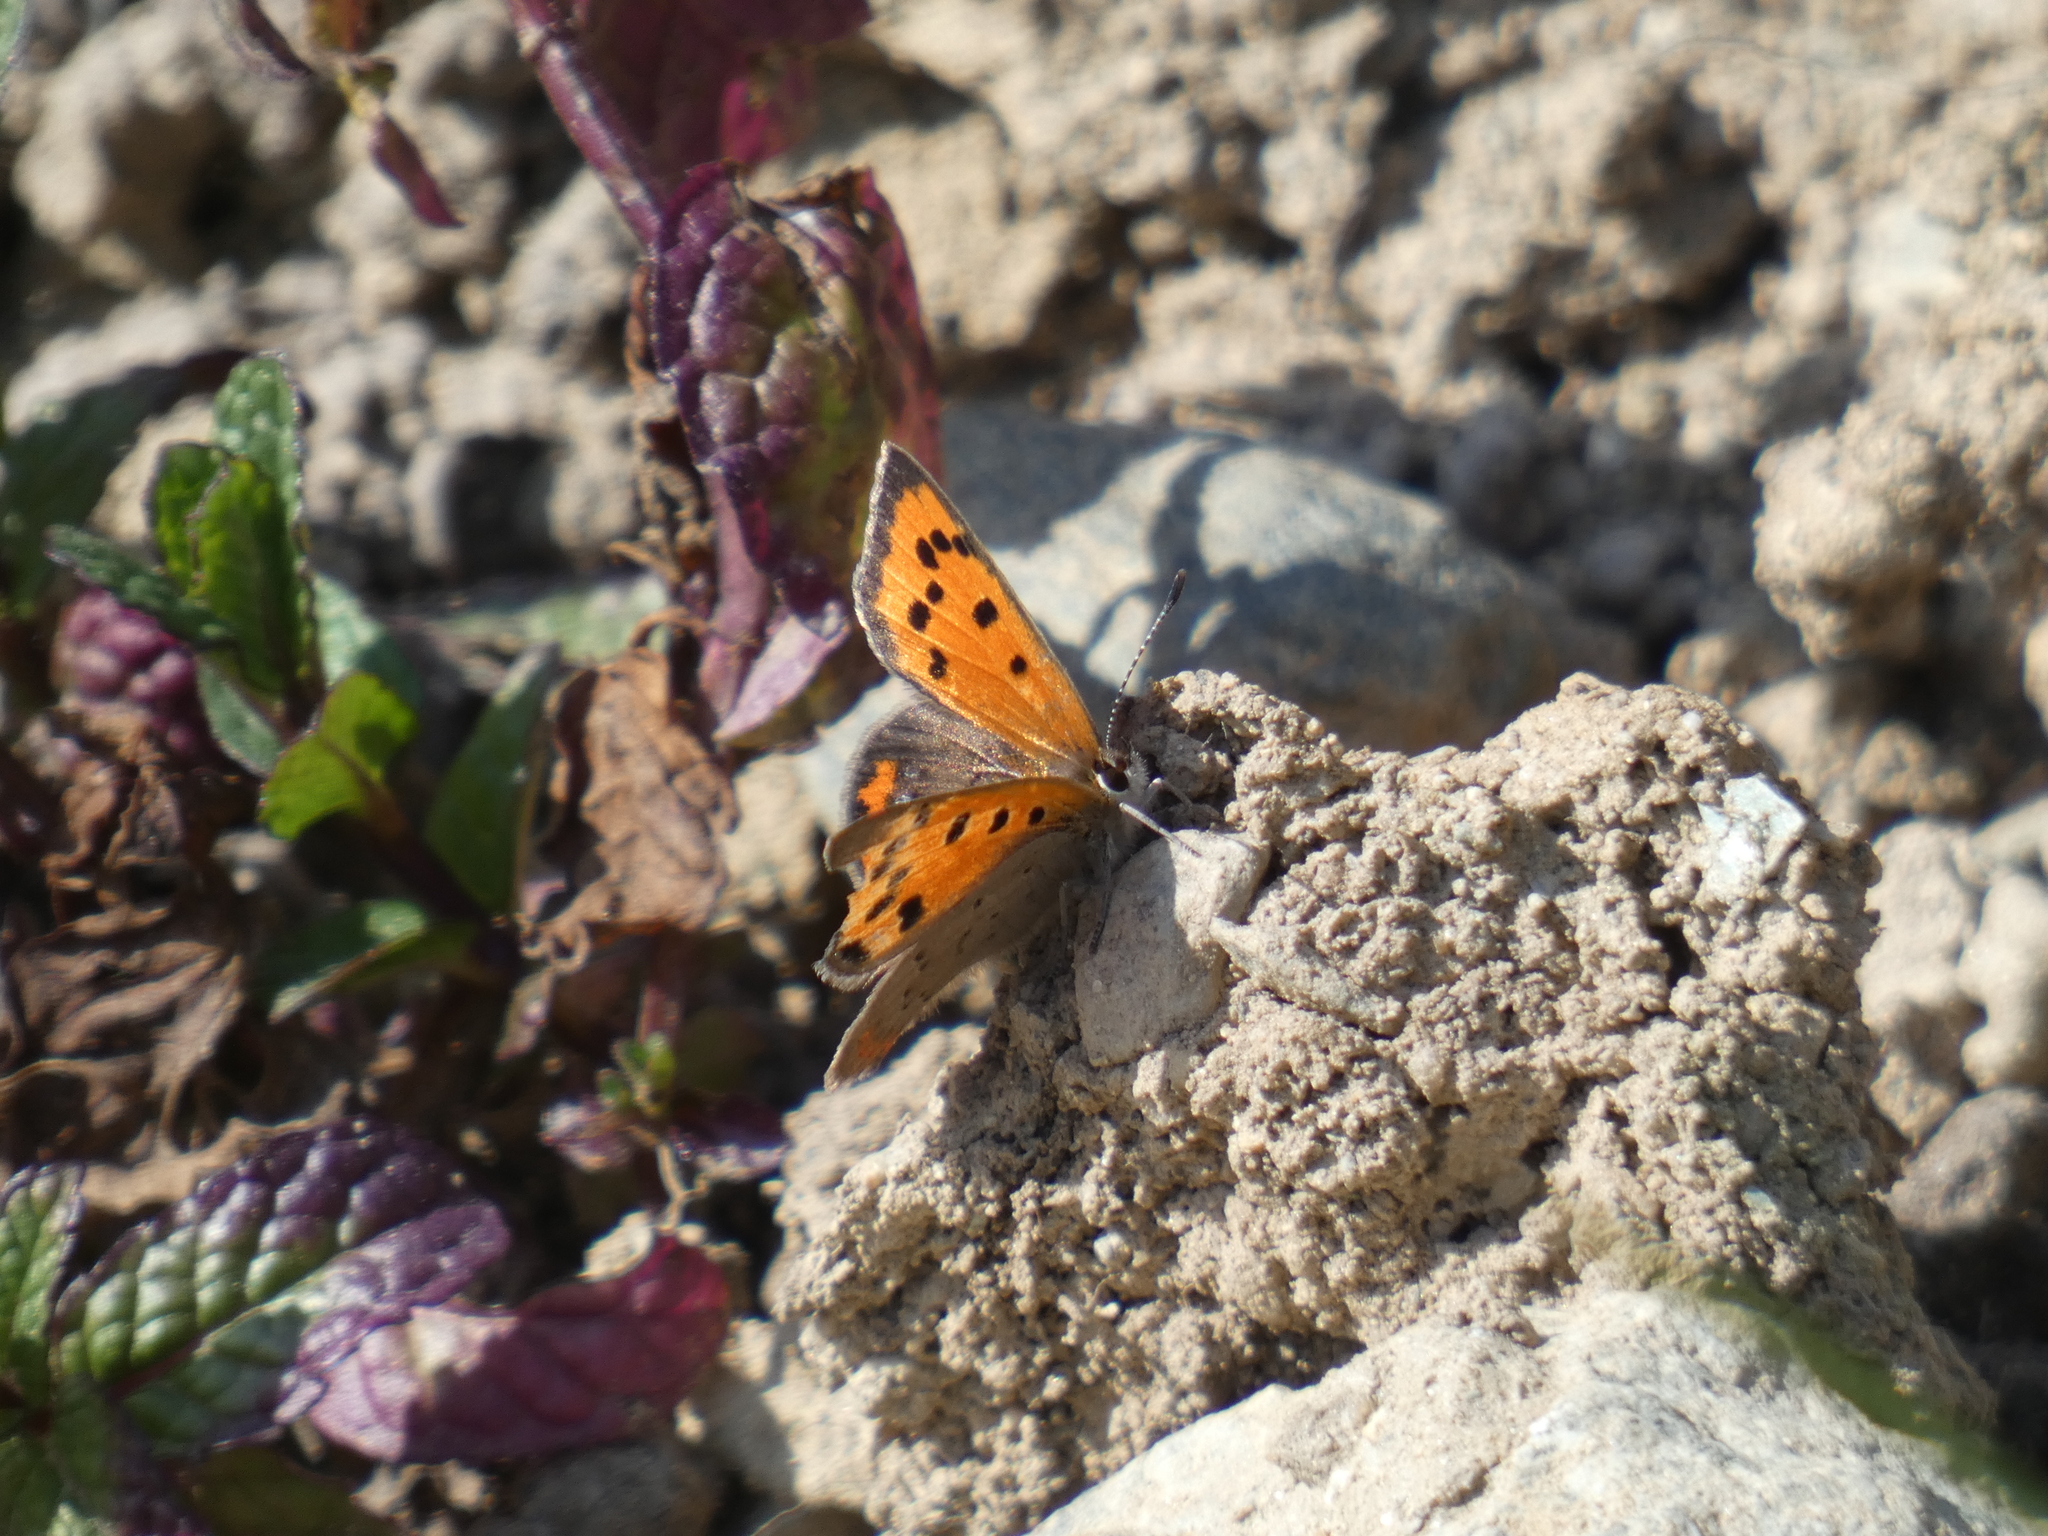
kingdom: Animalia
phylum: Arthropoda
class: Insecta
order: Lepidoptera
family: Lycaenidae
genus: Lycaena
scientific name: Lycaena phlaeas
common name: Small copper
